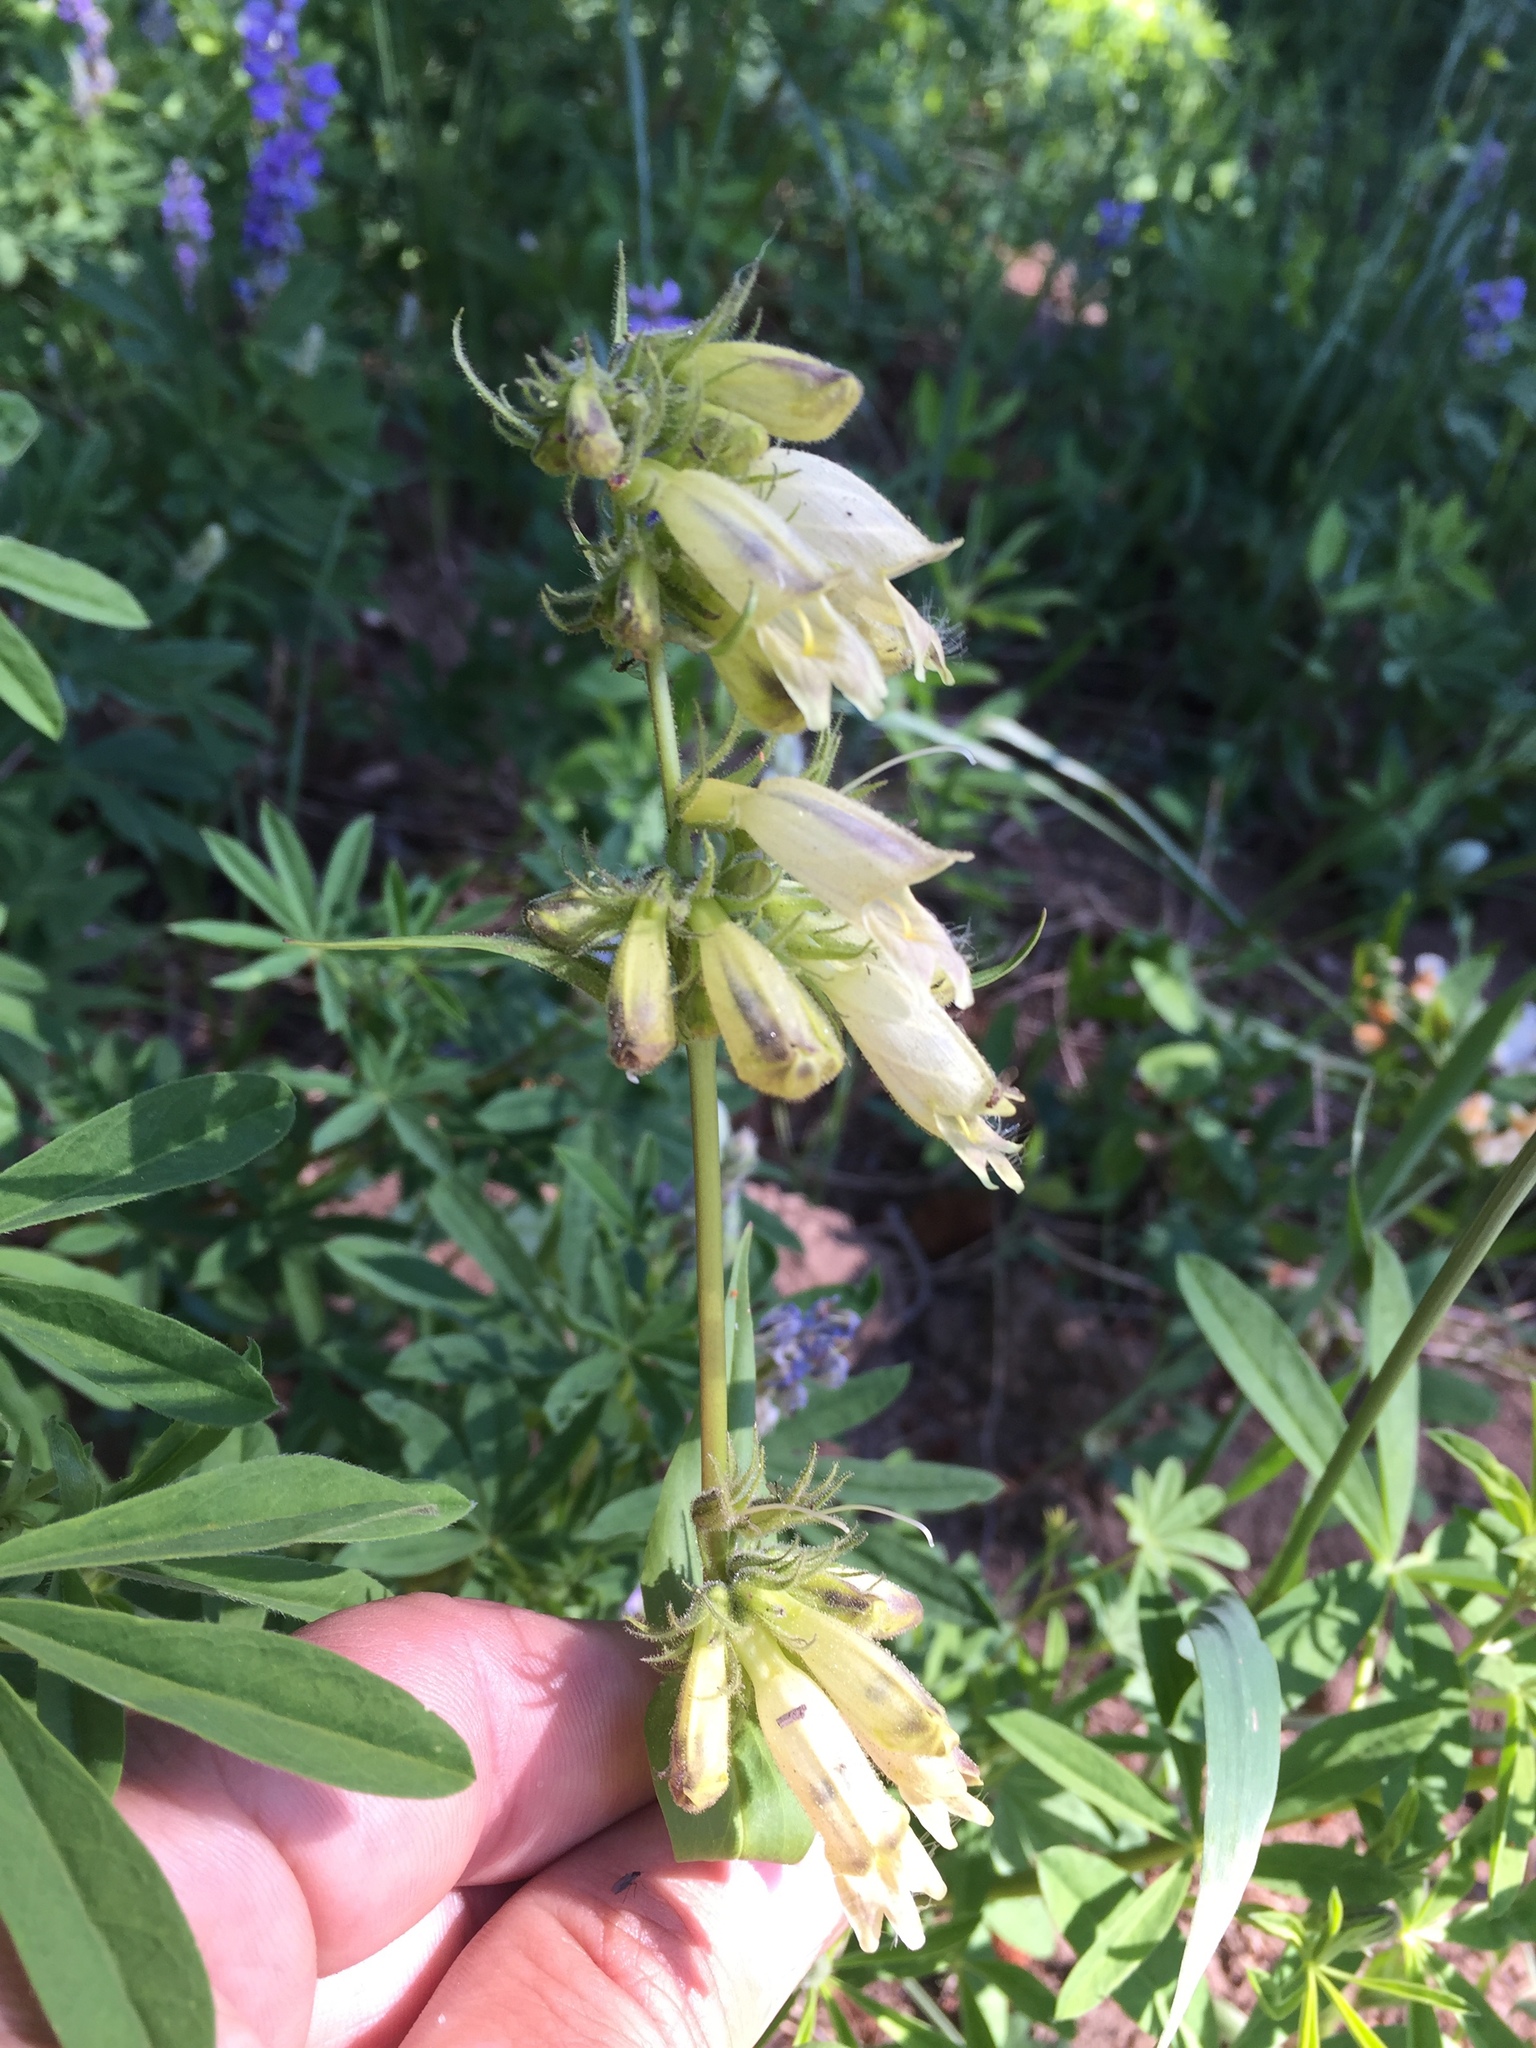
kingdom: Plantae
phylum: Tracheophyta
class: Magnoliopsida
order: Lamiales
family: Plantaginaceae
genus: Penstemon
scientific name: Penstemon whippleanus
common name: Whipple's penstemon
